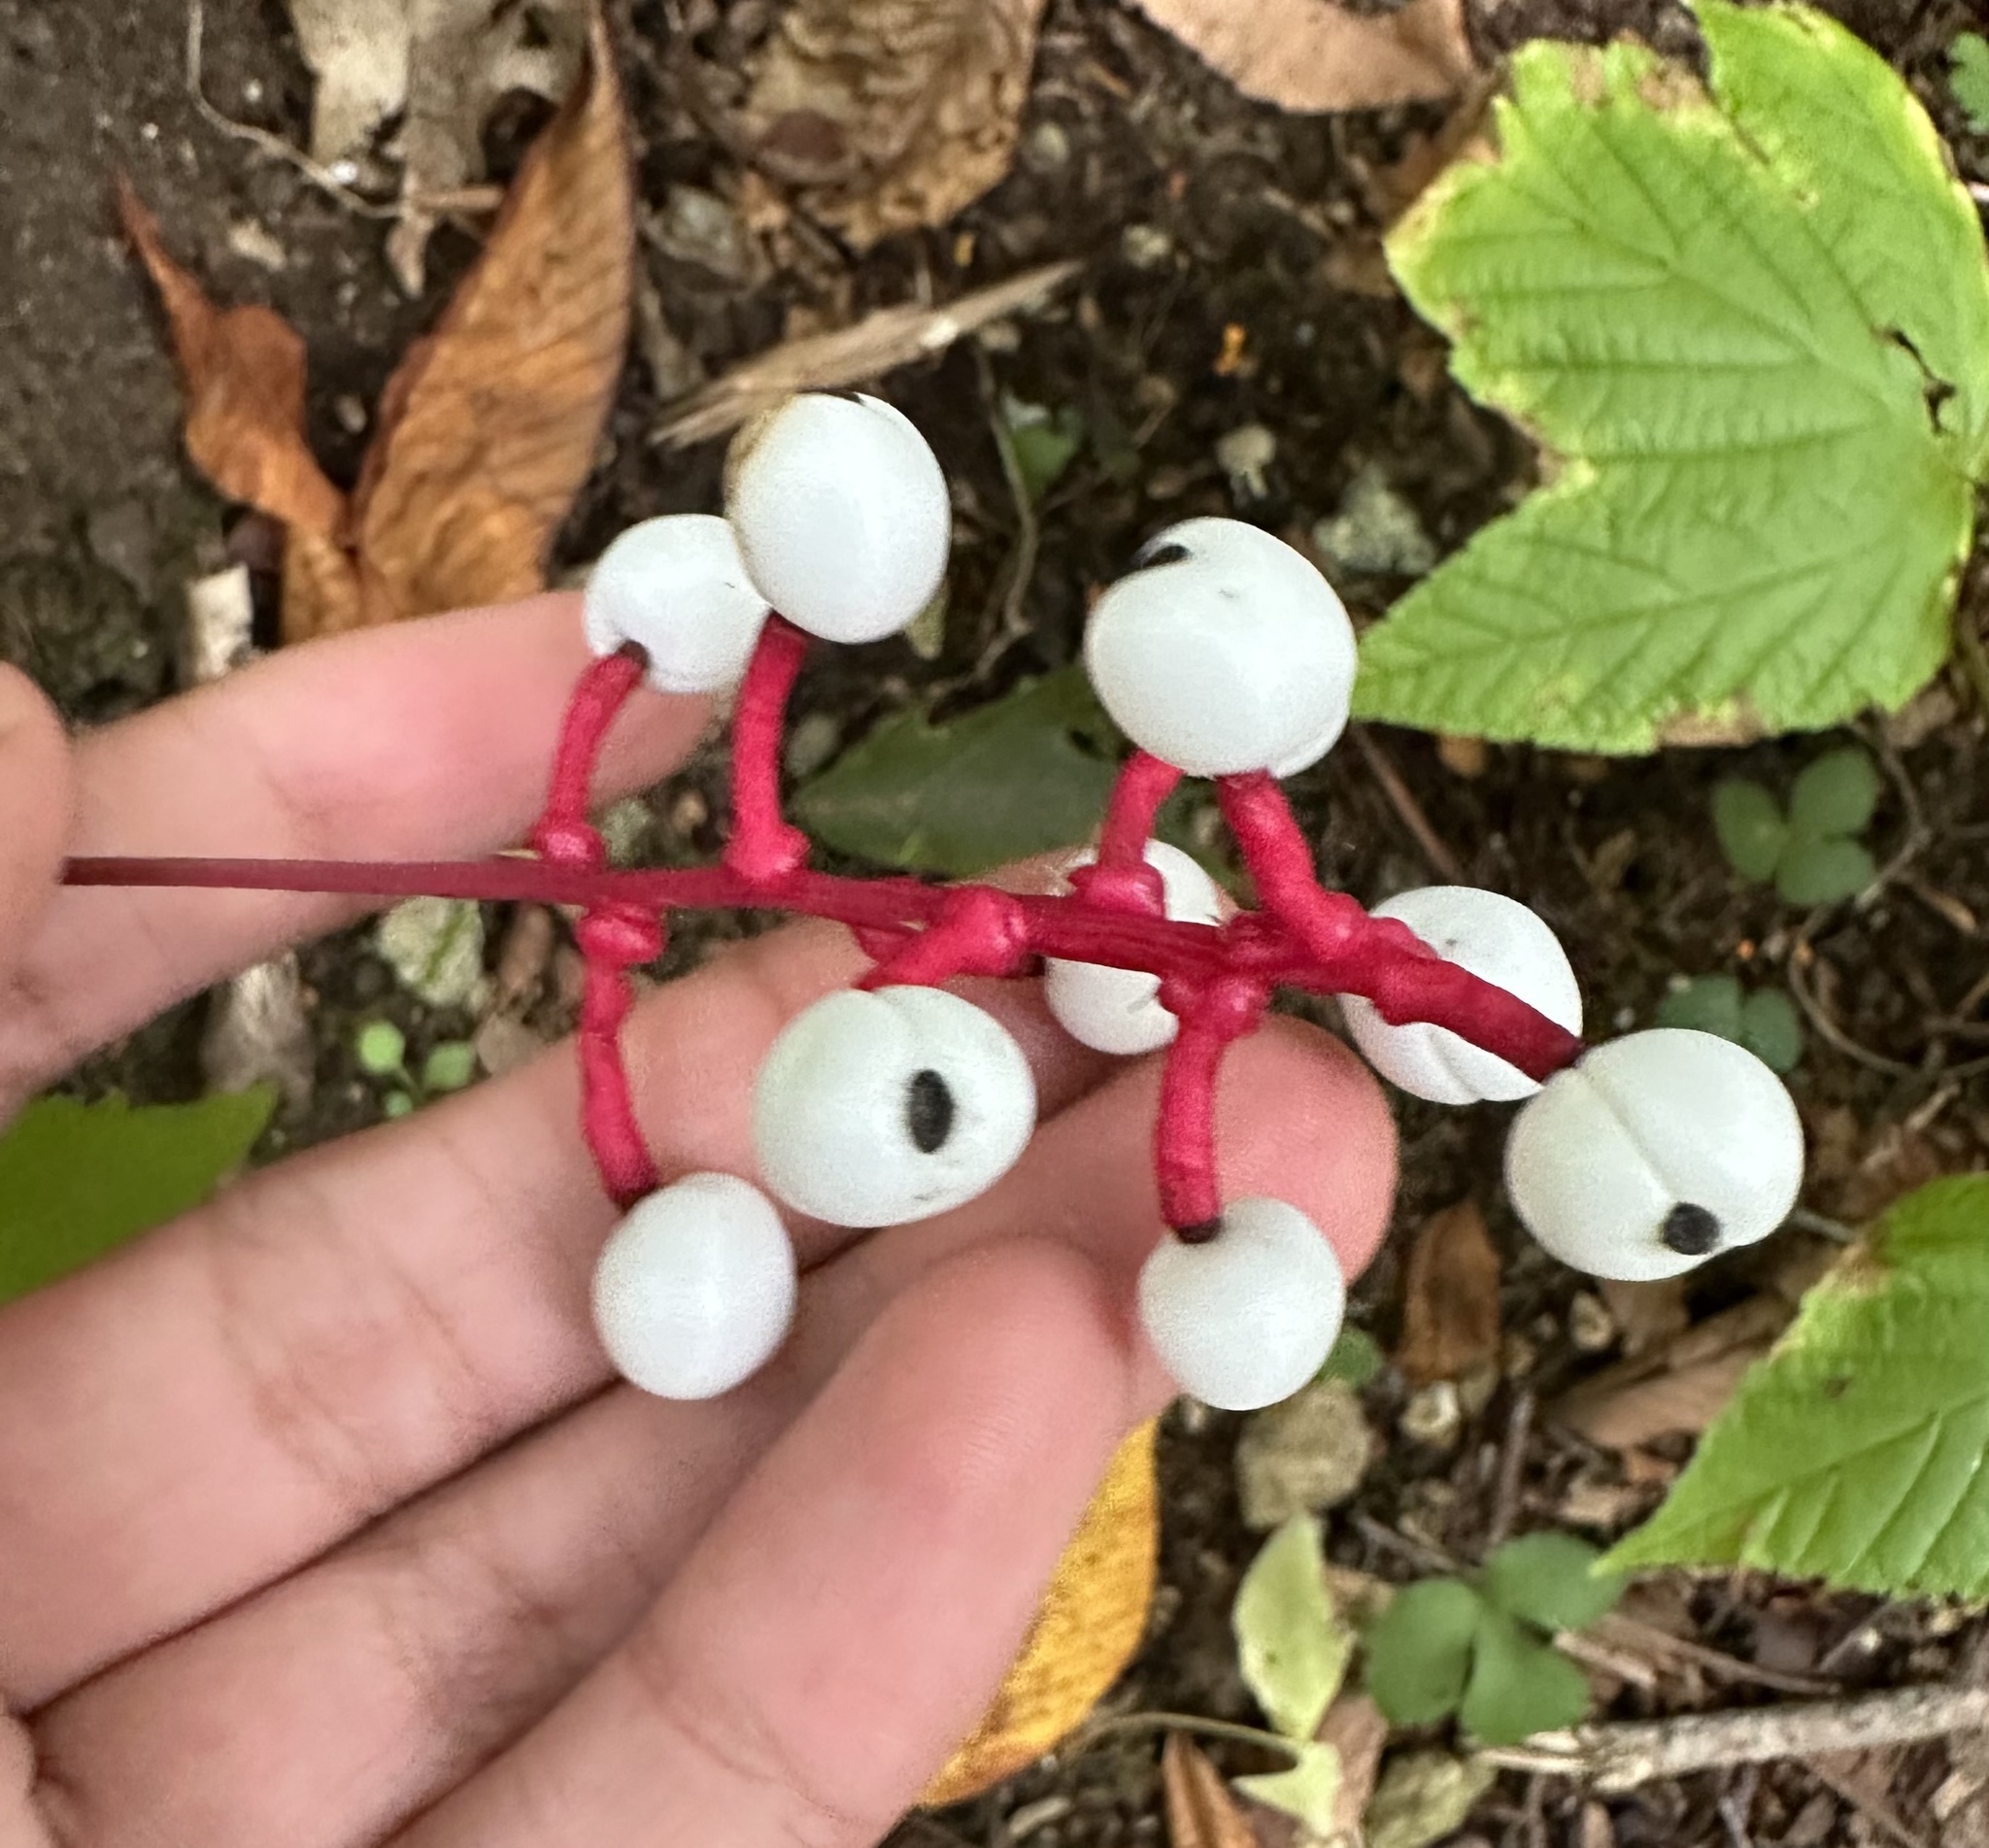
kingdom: Plantae
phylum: Tracheophyta
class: Magnoliopsida
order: Ranunculales
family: Ranunculaceae
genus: Actaea
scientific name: Actaea pachypoda
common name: Doll's-eyes
